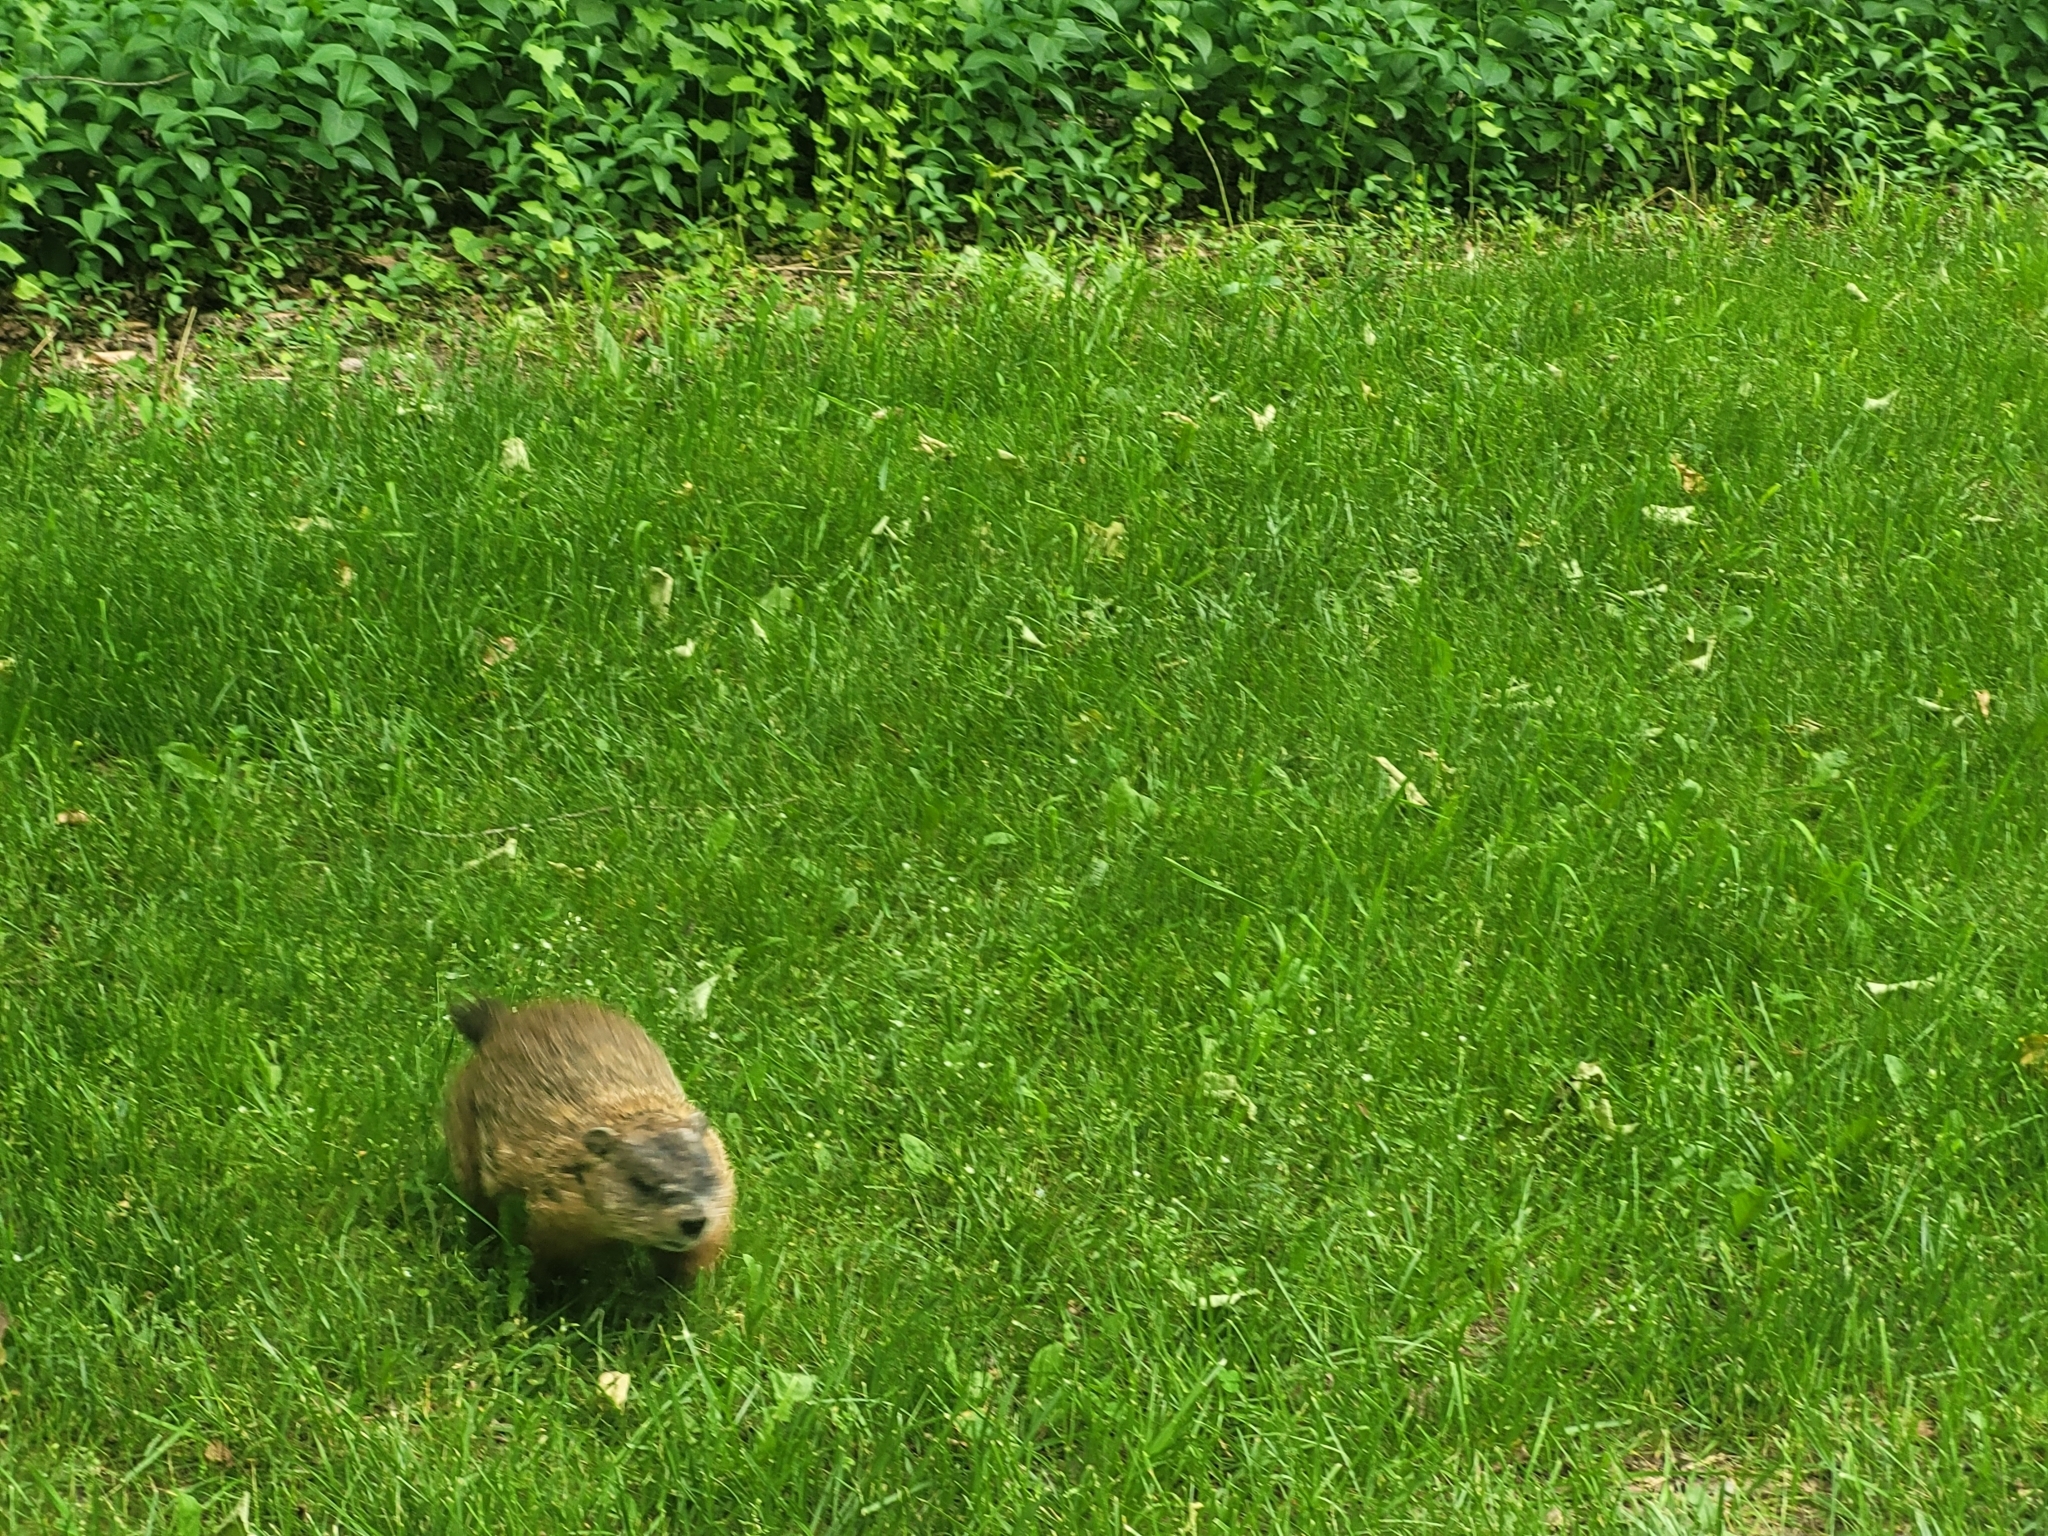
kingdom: Animalia
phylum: Chordata
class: Mammalia
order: Rodentia
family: Sciuridae
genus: Marmota
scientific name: Marmota monax
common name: Groundhog
